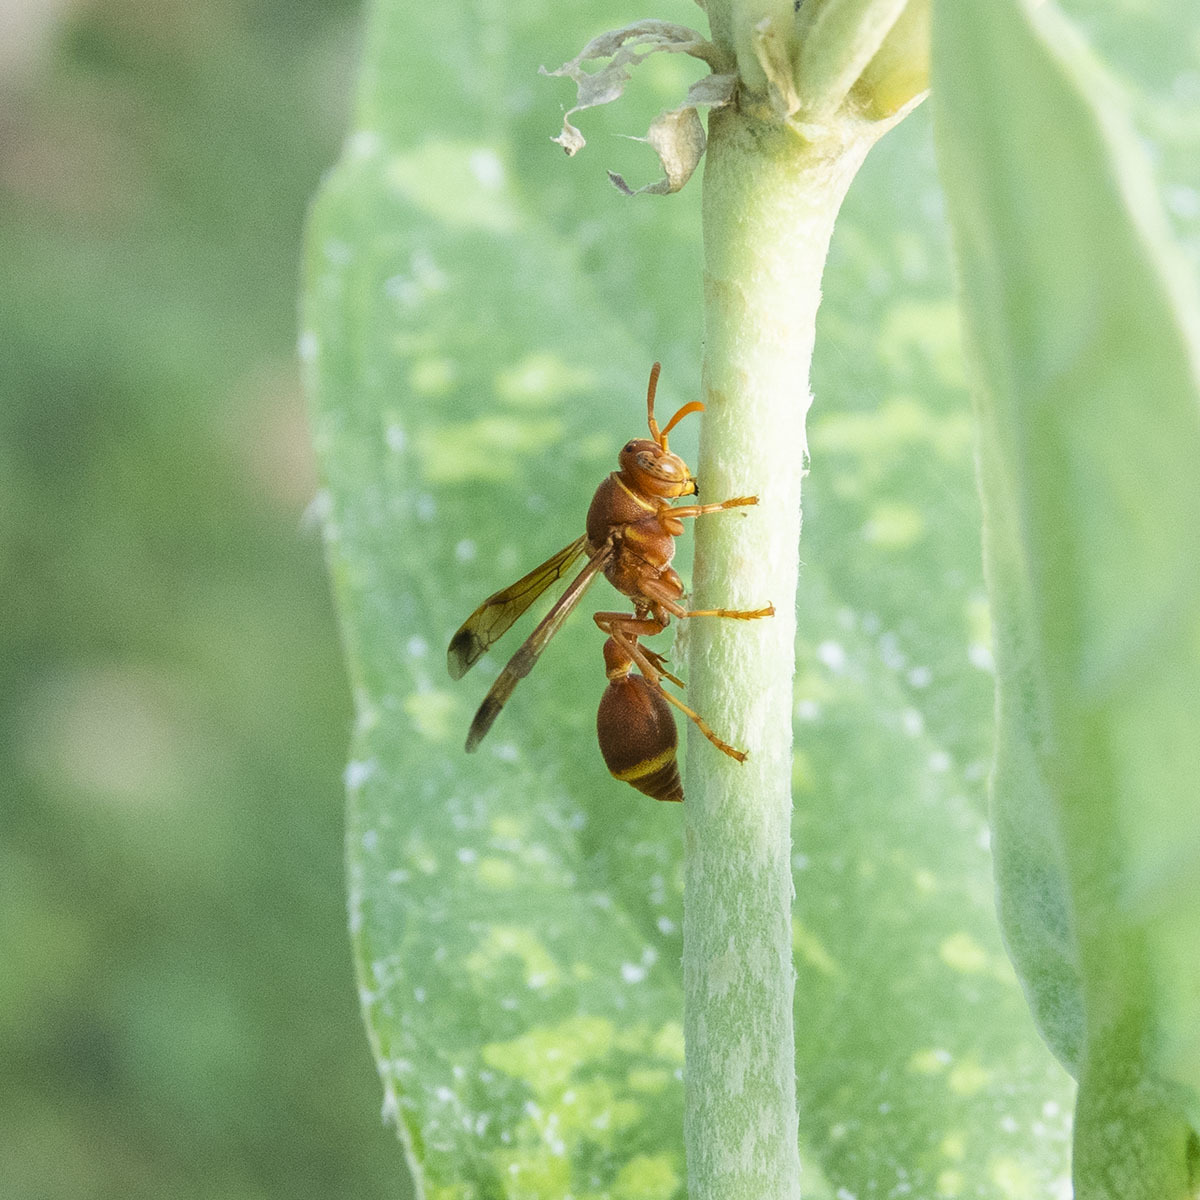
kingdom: Animalia
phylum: Arthropoda
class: Insecta
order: Hymenoptera
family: Vespidae
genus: Ropalidia
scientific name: Ropalidia marginata
